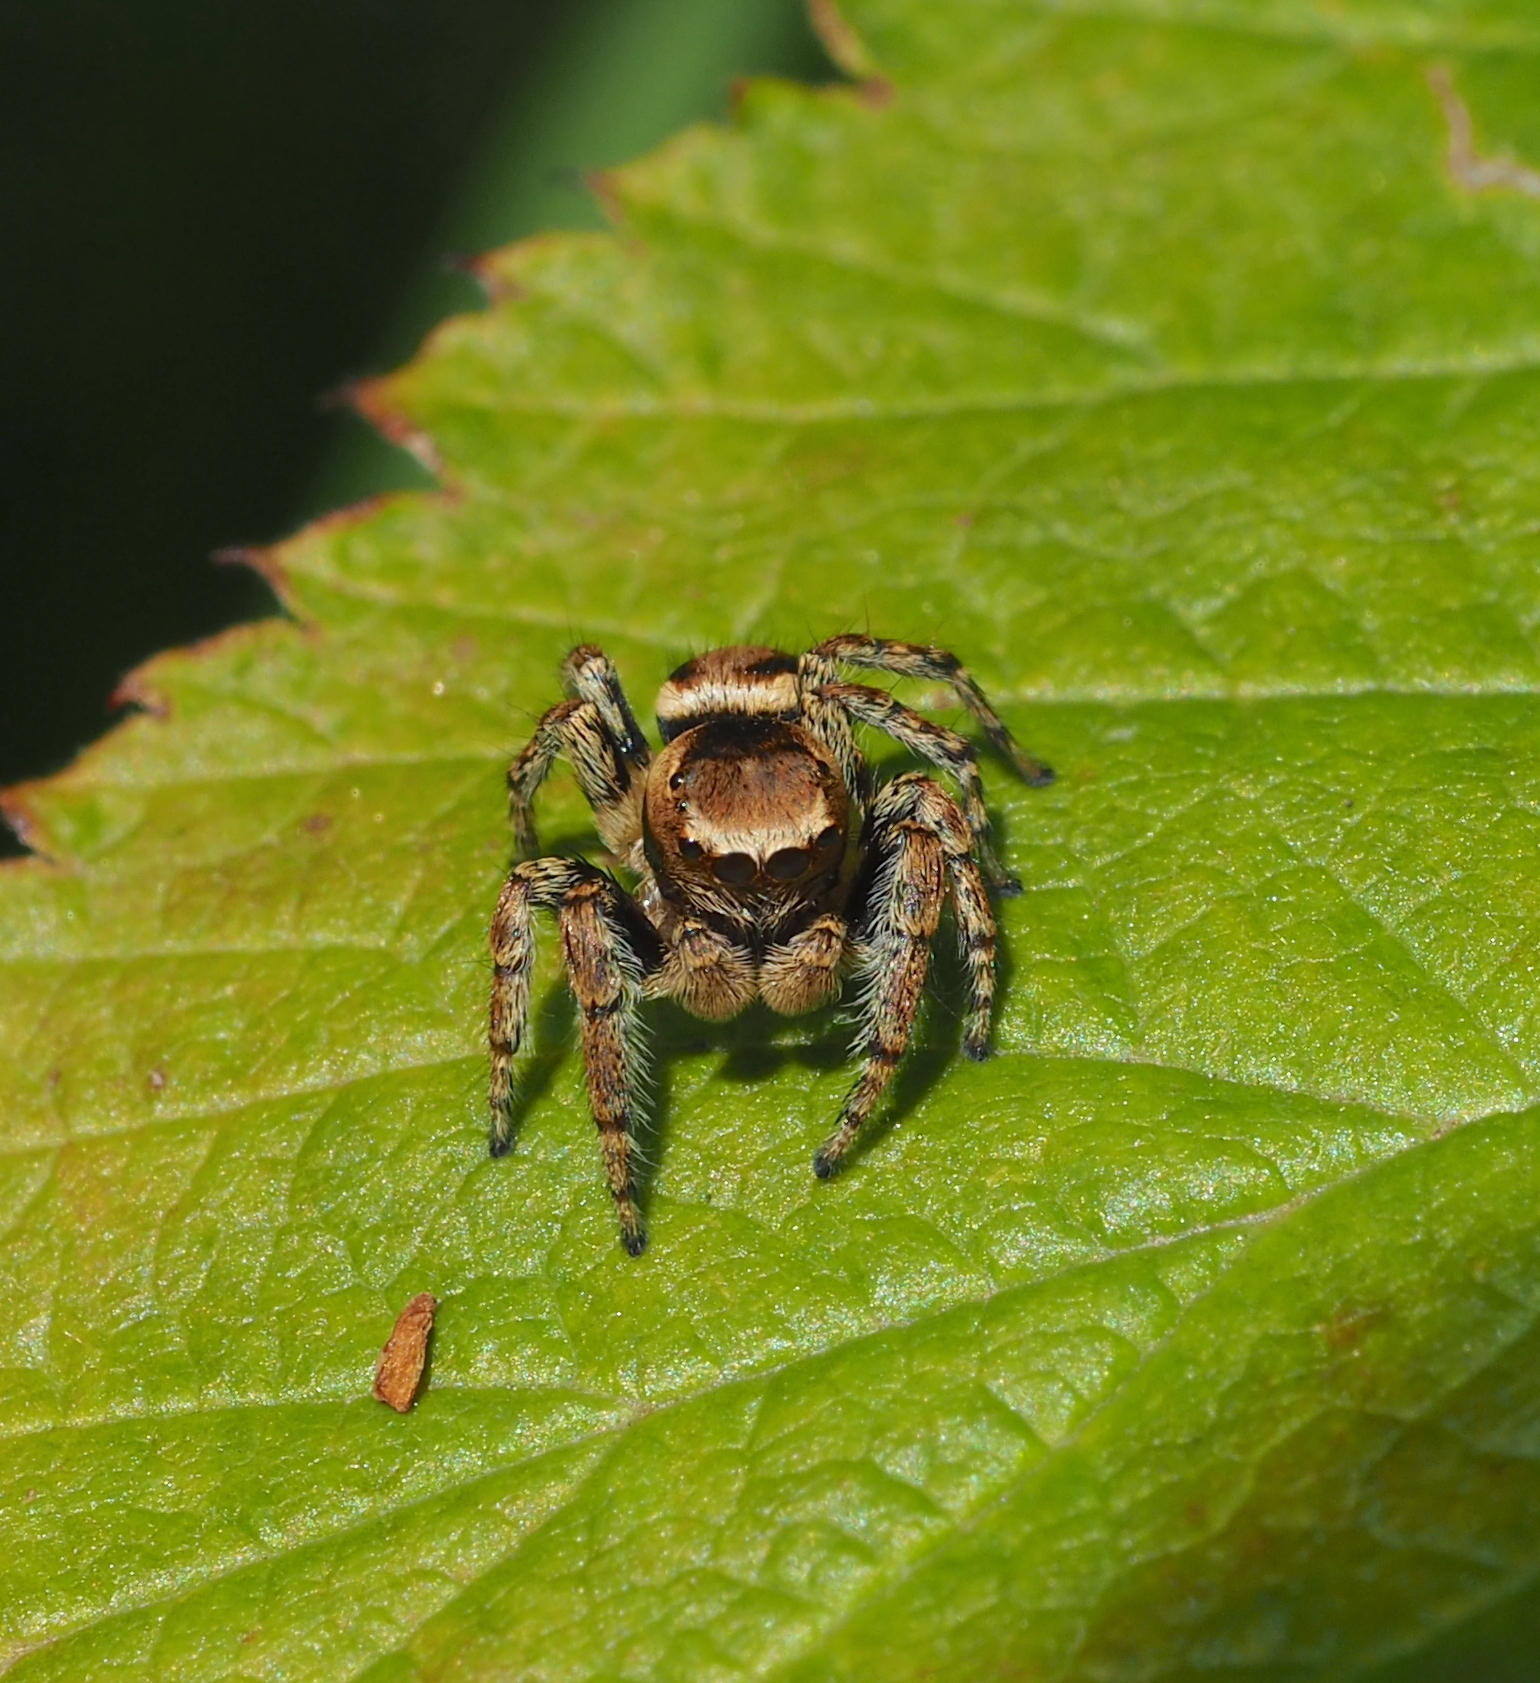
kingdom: Animalia
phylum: Arthropoda
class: Arachnida
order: Araneae
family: Salticidae
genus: Evarcha
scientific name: Evarcha falcata
